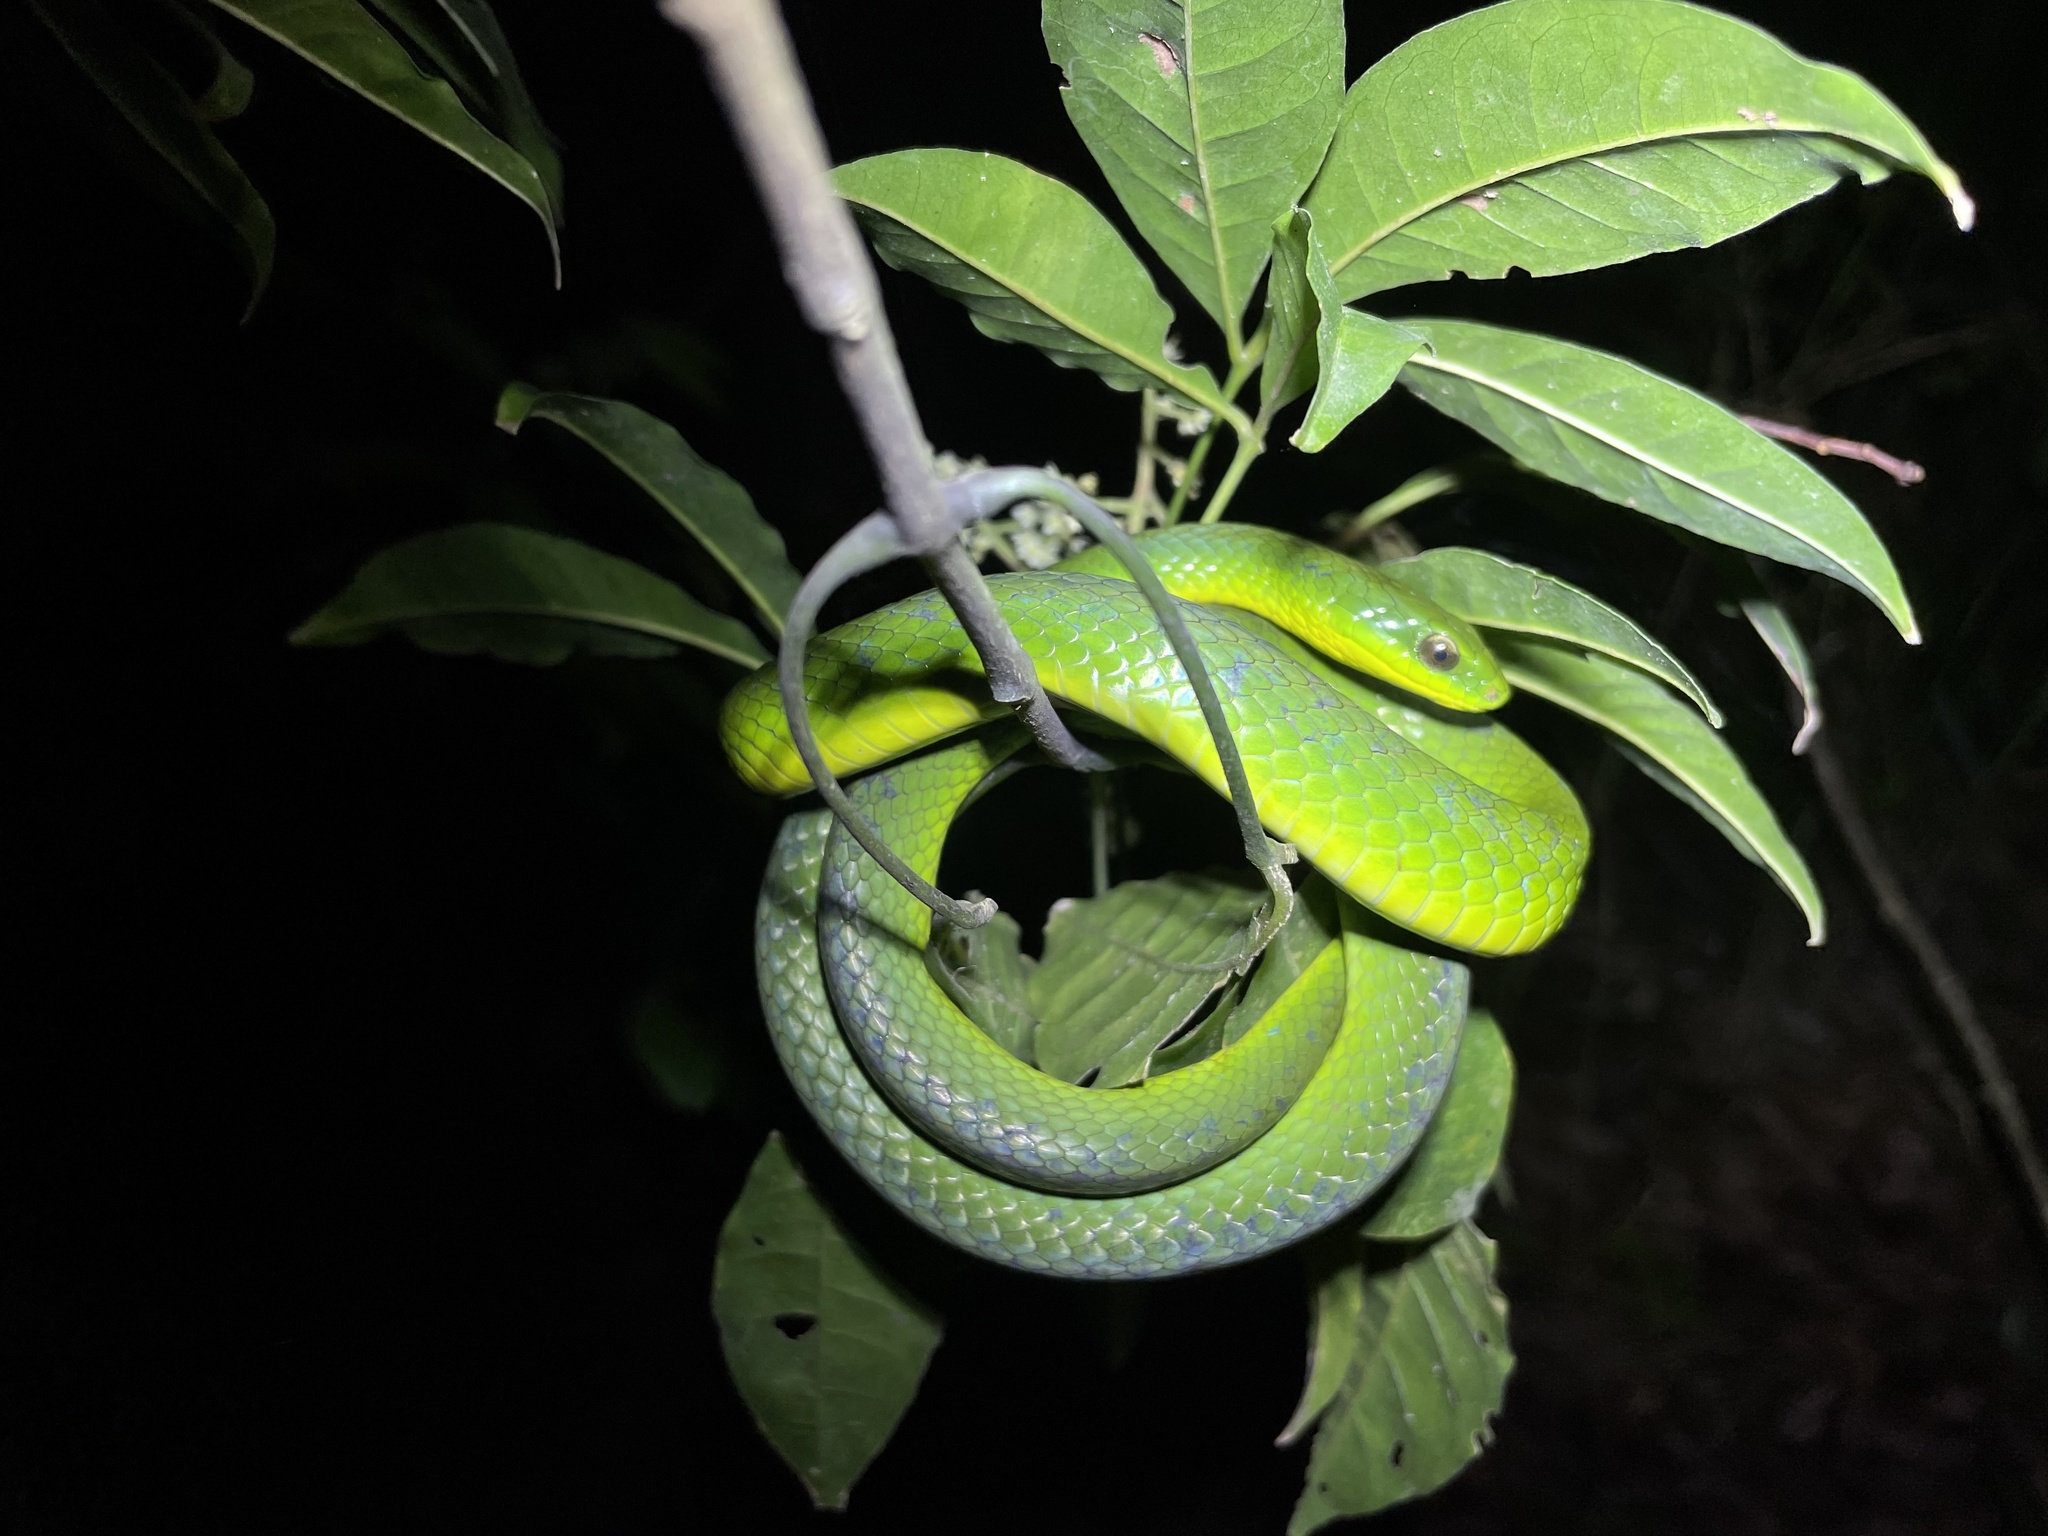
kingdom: Animalia
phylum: Chordata
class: Squamata
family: Colubridae
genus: Ptyas
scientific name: Ptyas major
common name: Chinese green snake
